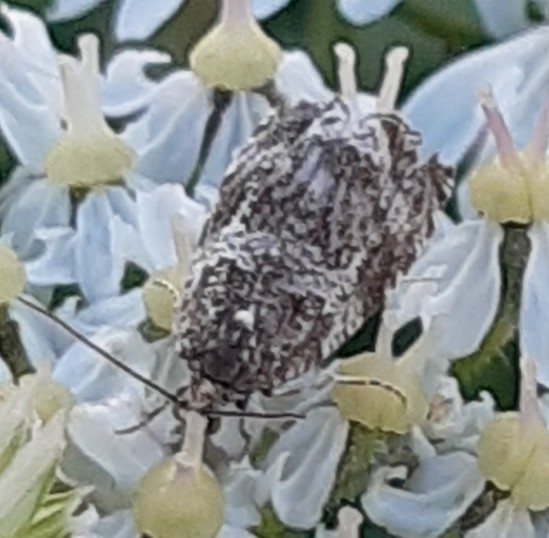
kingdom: Animalia
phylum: Arthropoda
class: Insecta
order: Lepidoptera
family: Tortricidae
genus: Syricoris
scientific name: Syricoris lacunana
